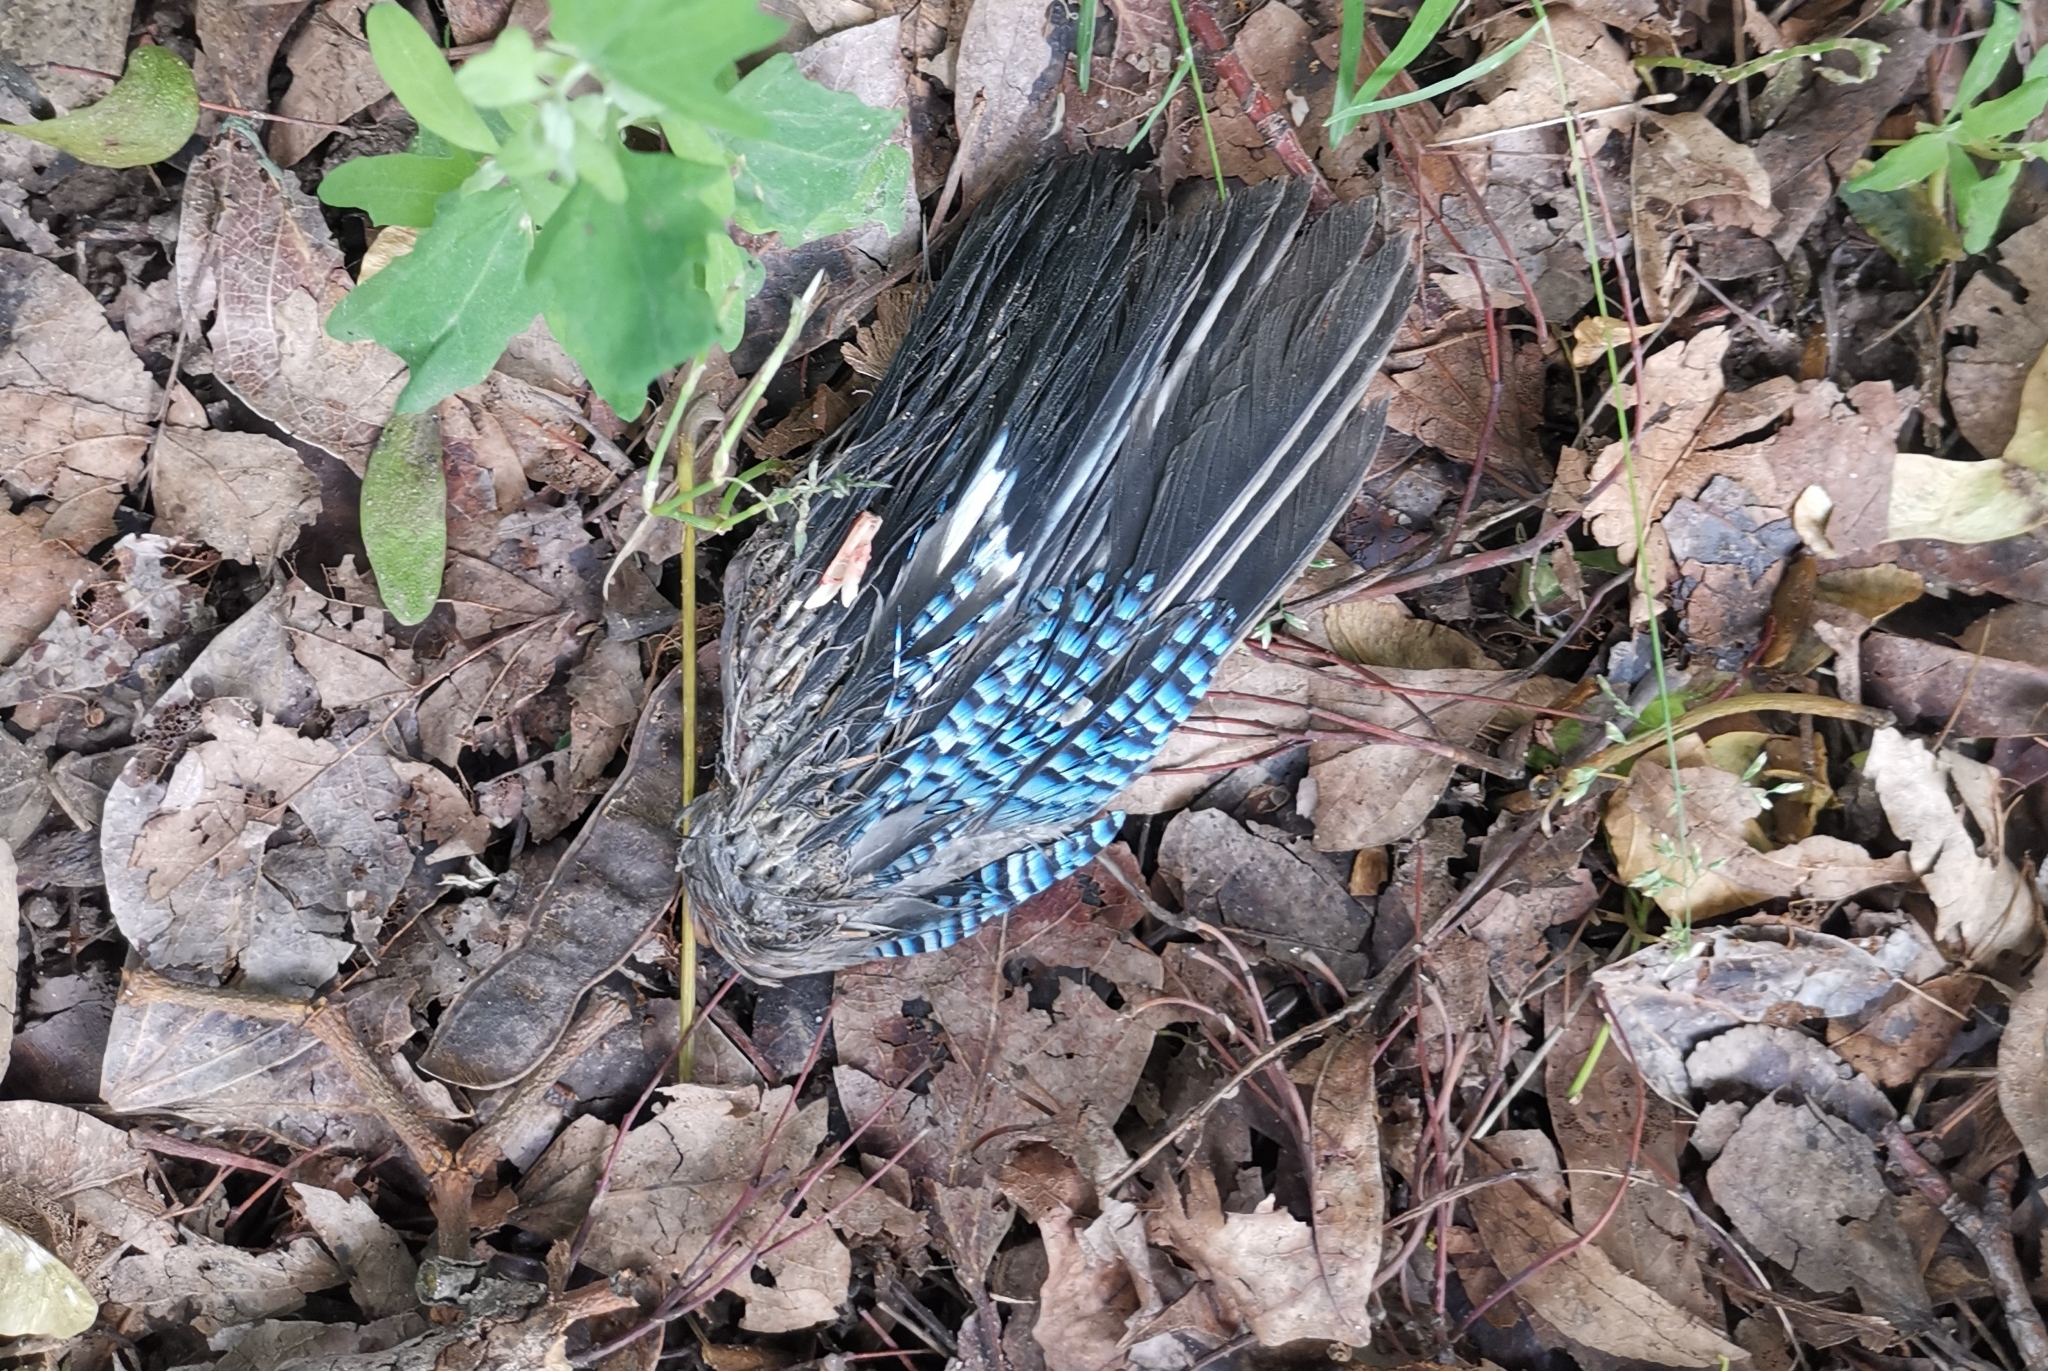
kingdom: Animalia
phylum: Chordata
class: Aves
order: Passeriformes
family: Corvidae
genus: Garrulus
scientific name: Garrulus glandarius
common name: Eurasian jay
